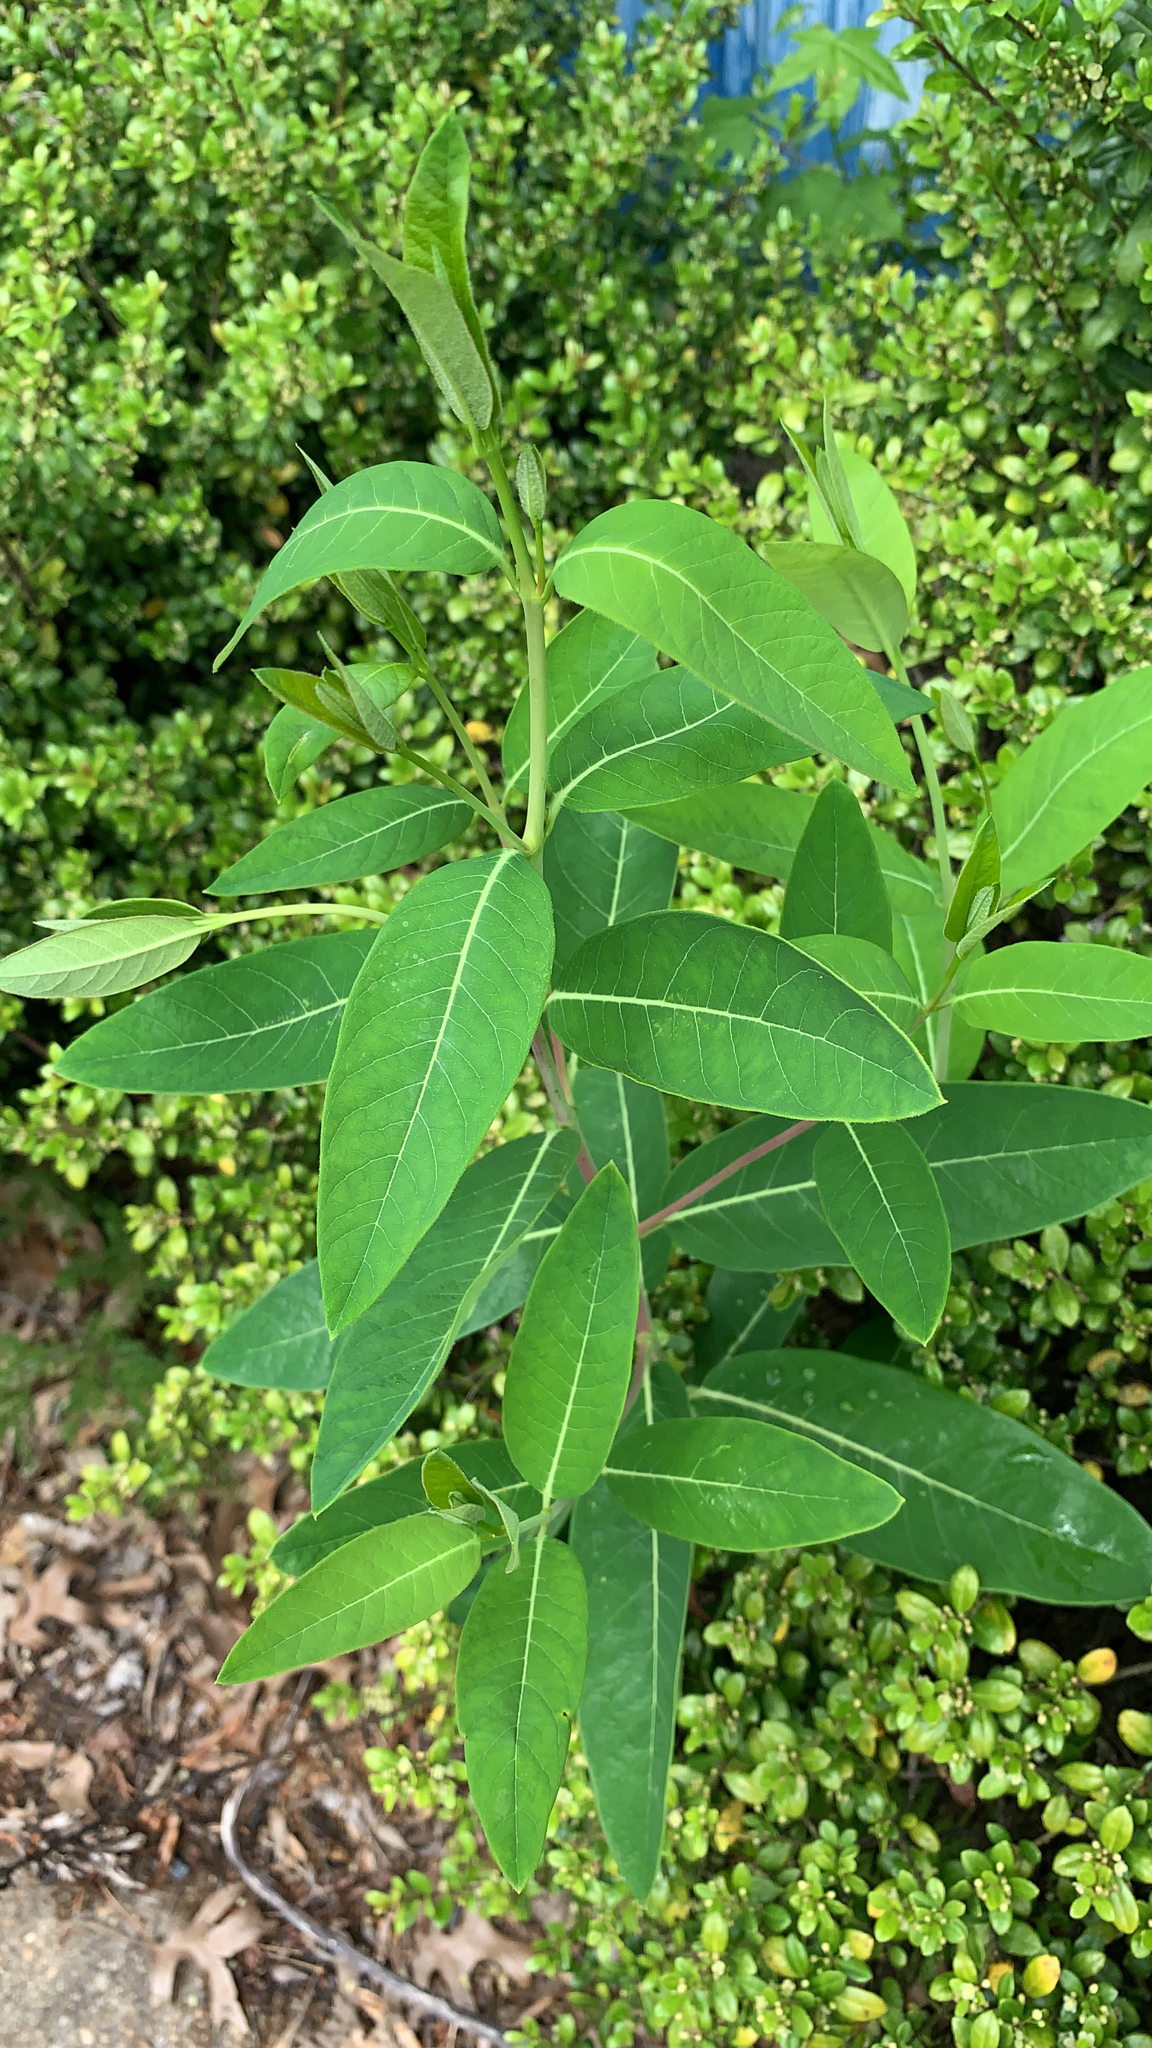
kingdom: Plantae
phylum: Tracheophyta
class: Magnoliopsida
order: Gentianales
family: Apocynaceae
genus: Apocynum
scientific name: Apocynum cannabinum
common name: Hemp dogbane
